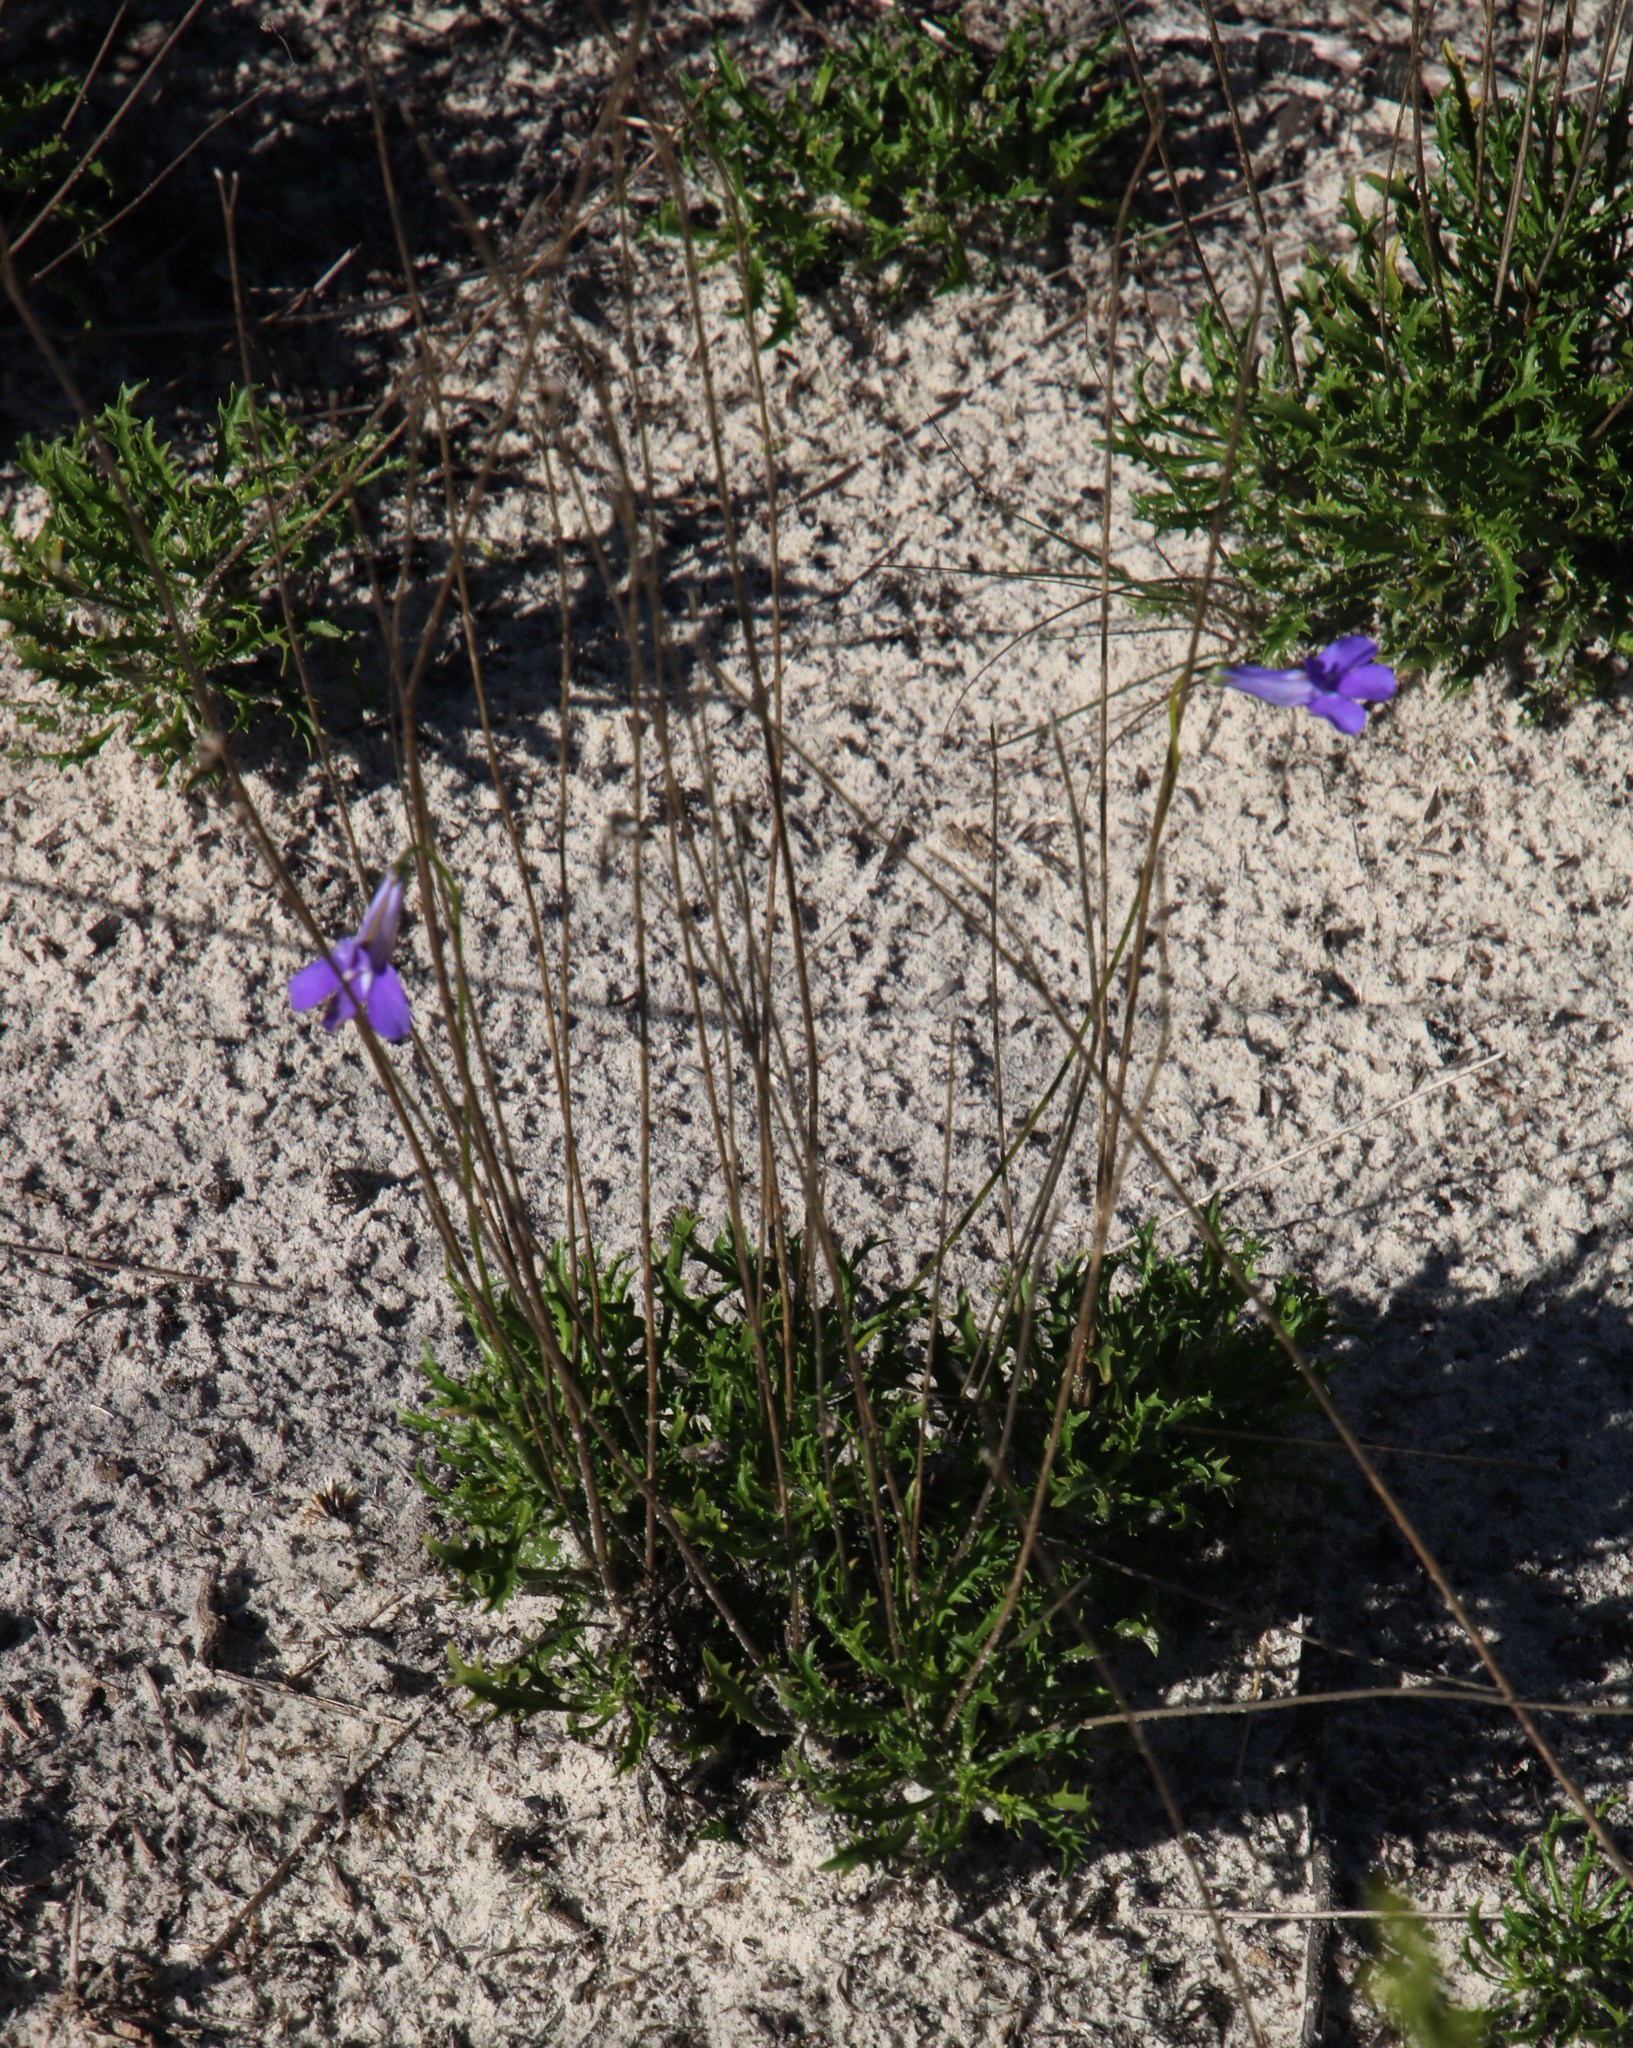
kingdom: Plantae
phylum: Tracheophyta
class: Magnoliopsida
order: Asterales
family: Campanulaceae
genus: Lobelia
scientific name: Lobelia coronopifolia
